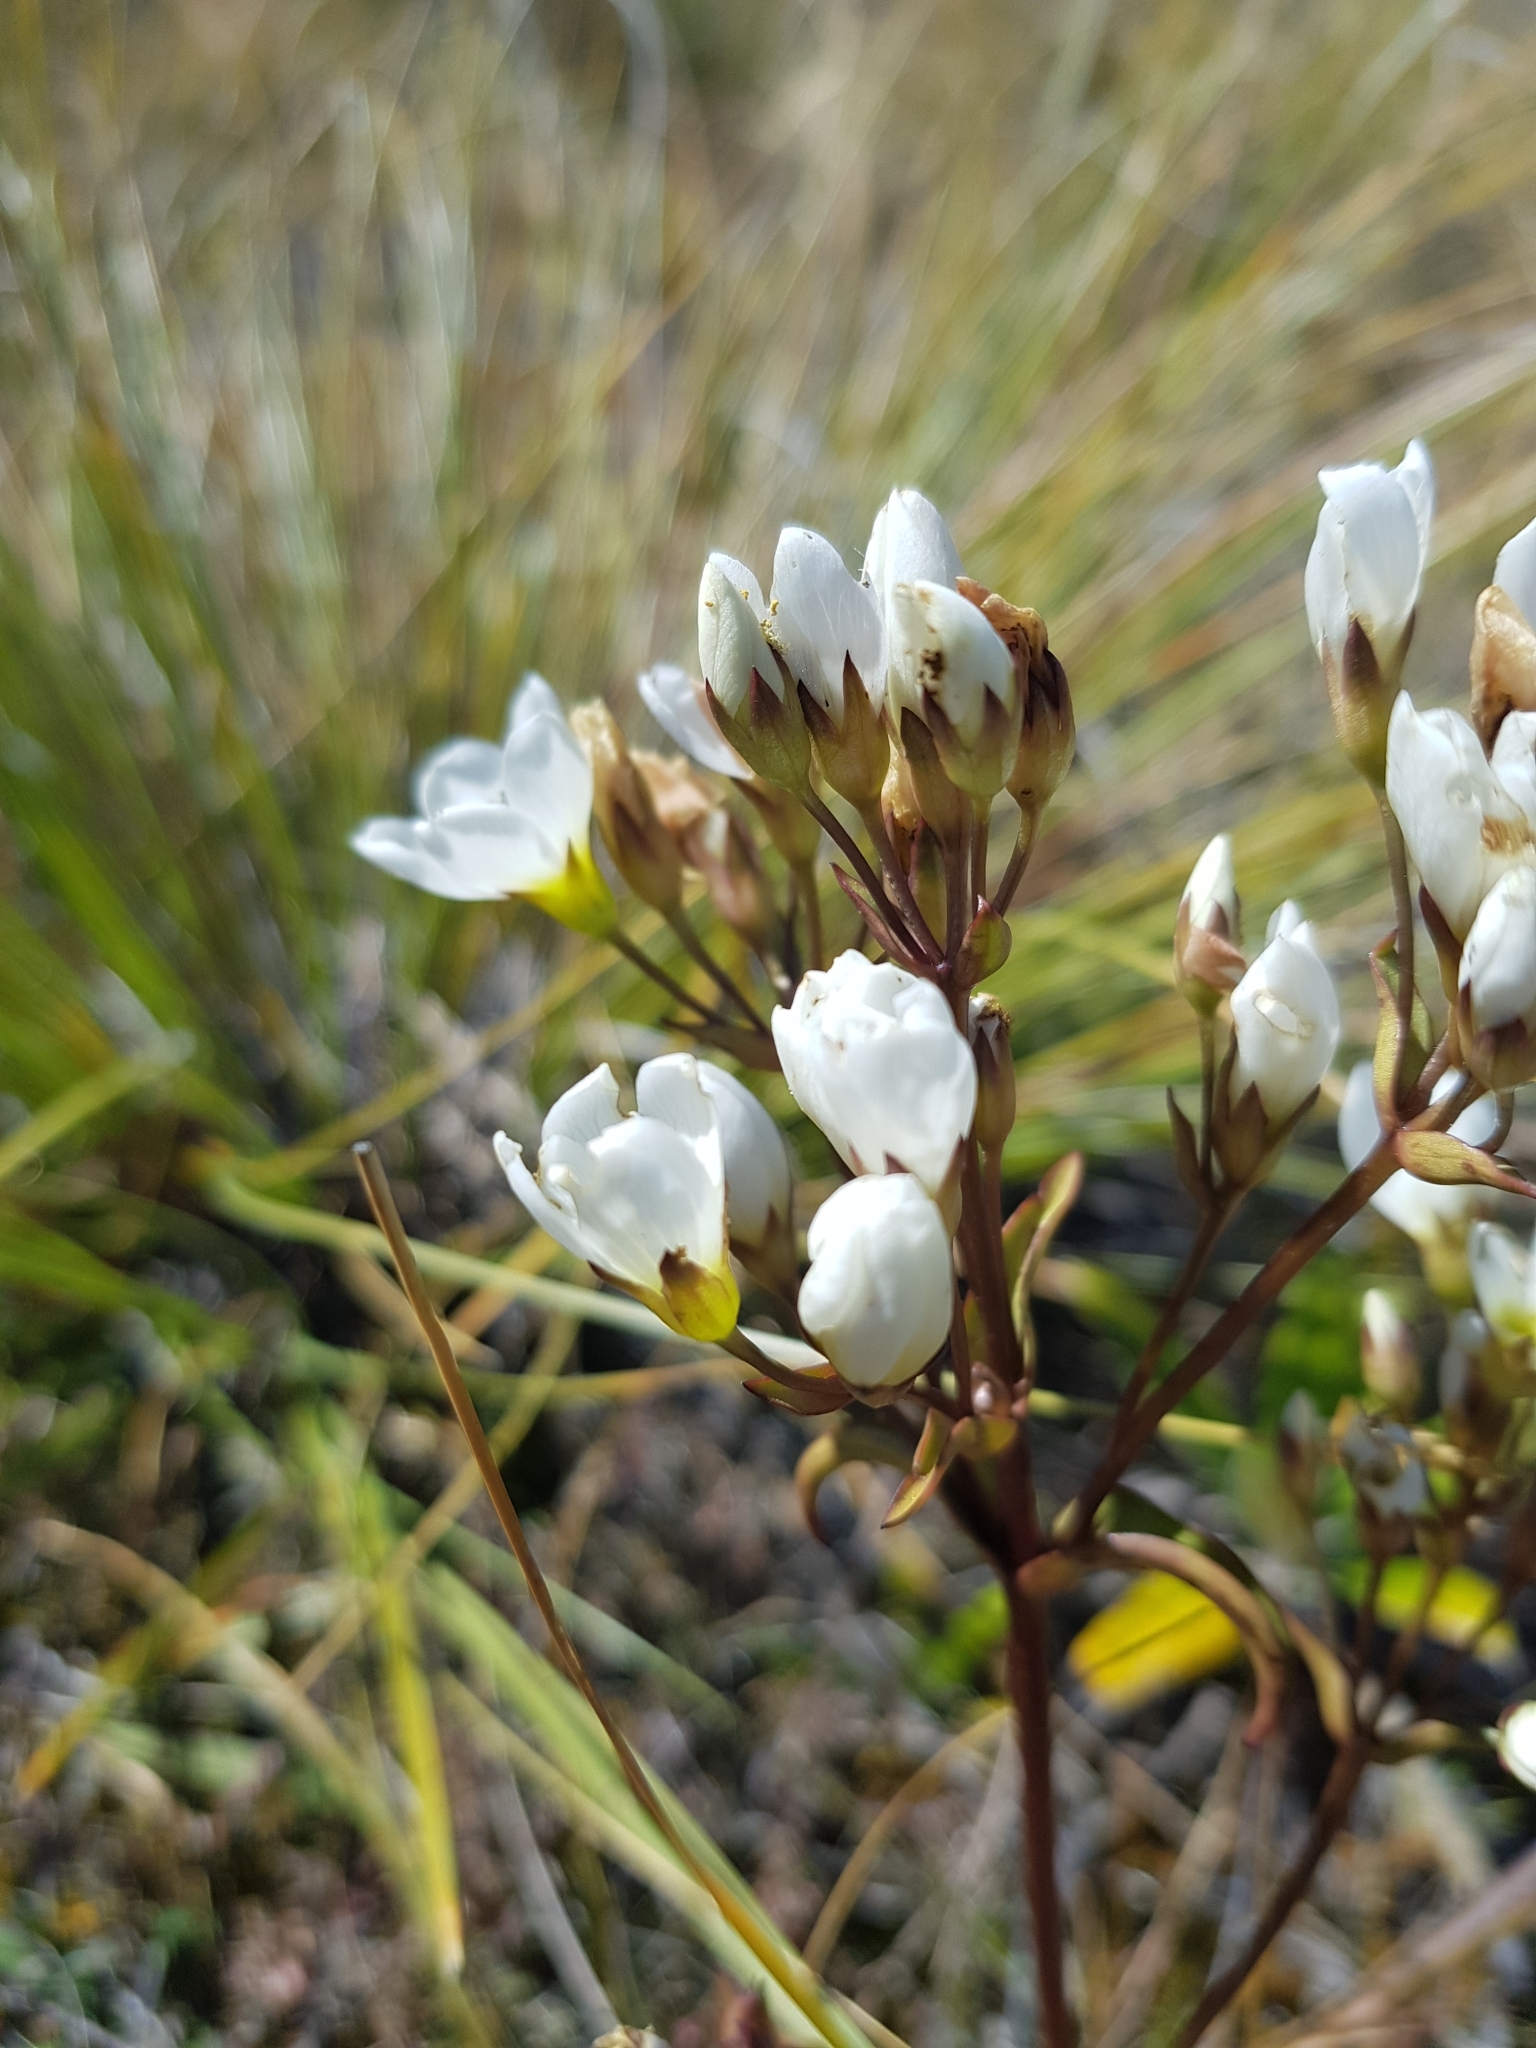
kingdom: Plantae
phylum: Tracheophyta
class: Magnoliopsida
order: Gentianales
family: Gentianaceae
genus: Gentianella
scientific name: Gentianella corymbifera
